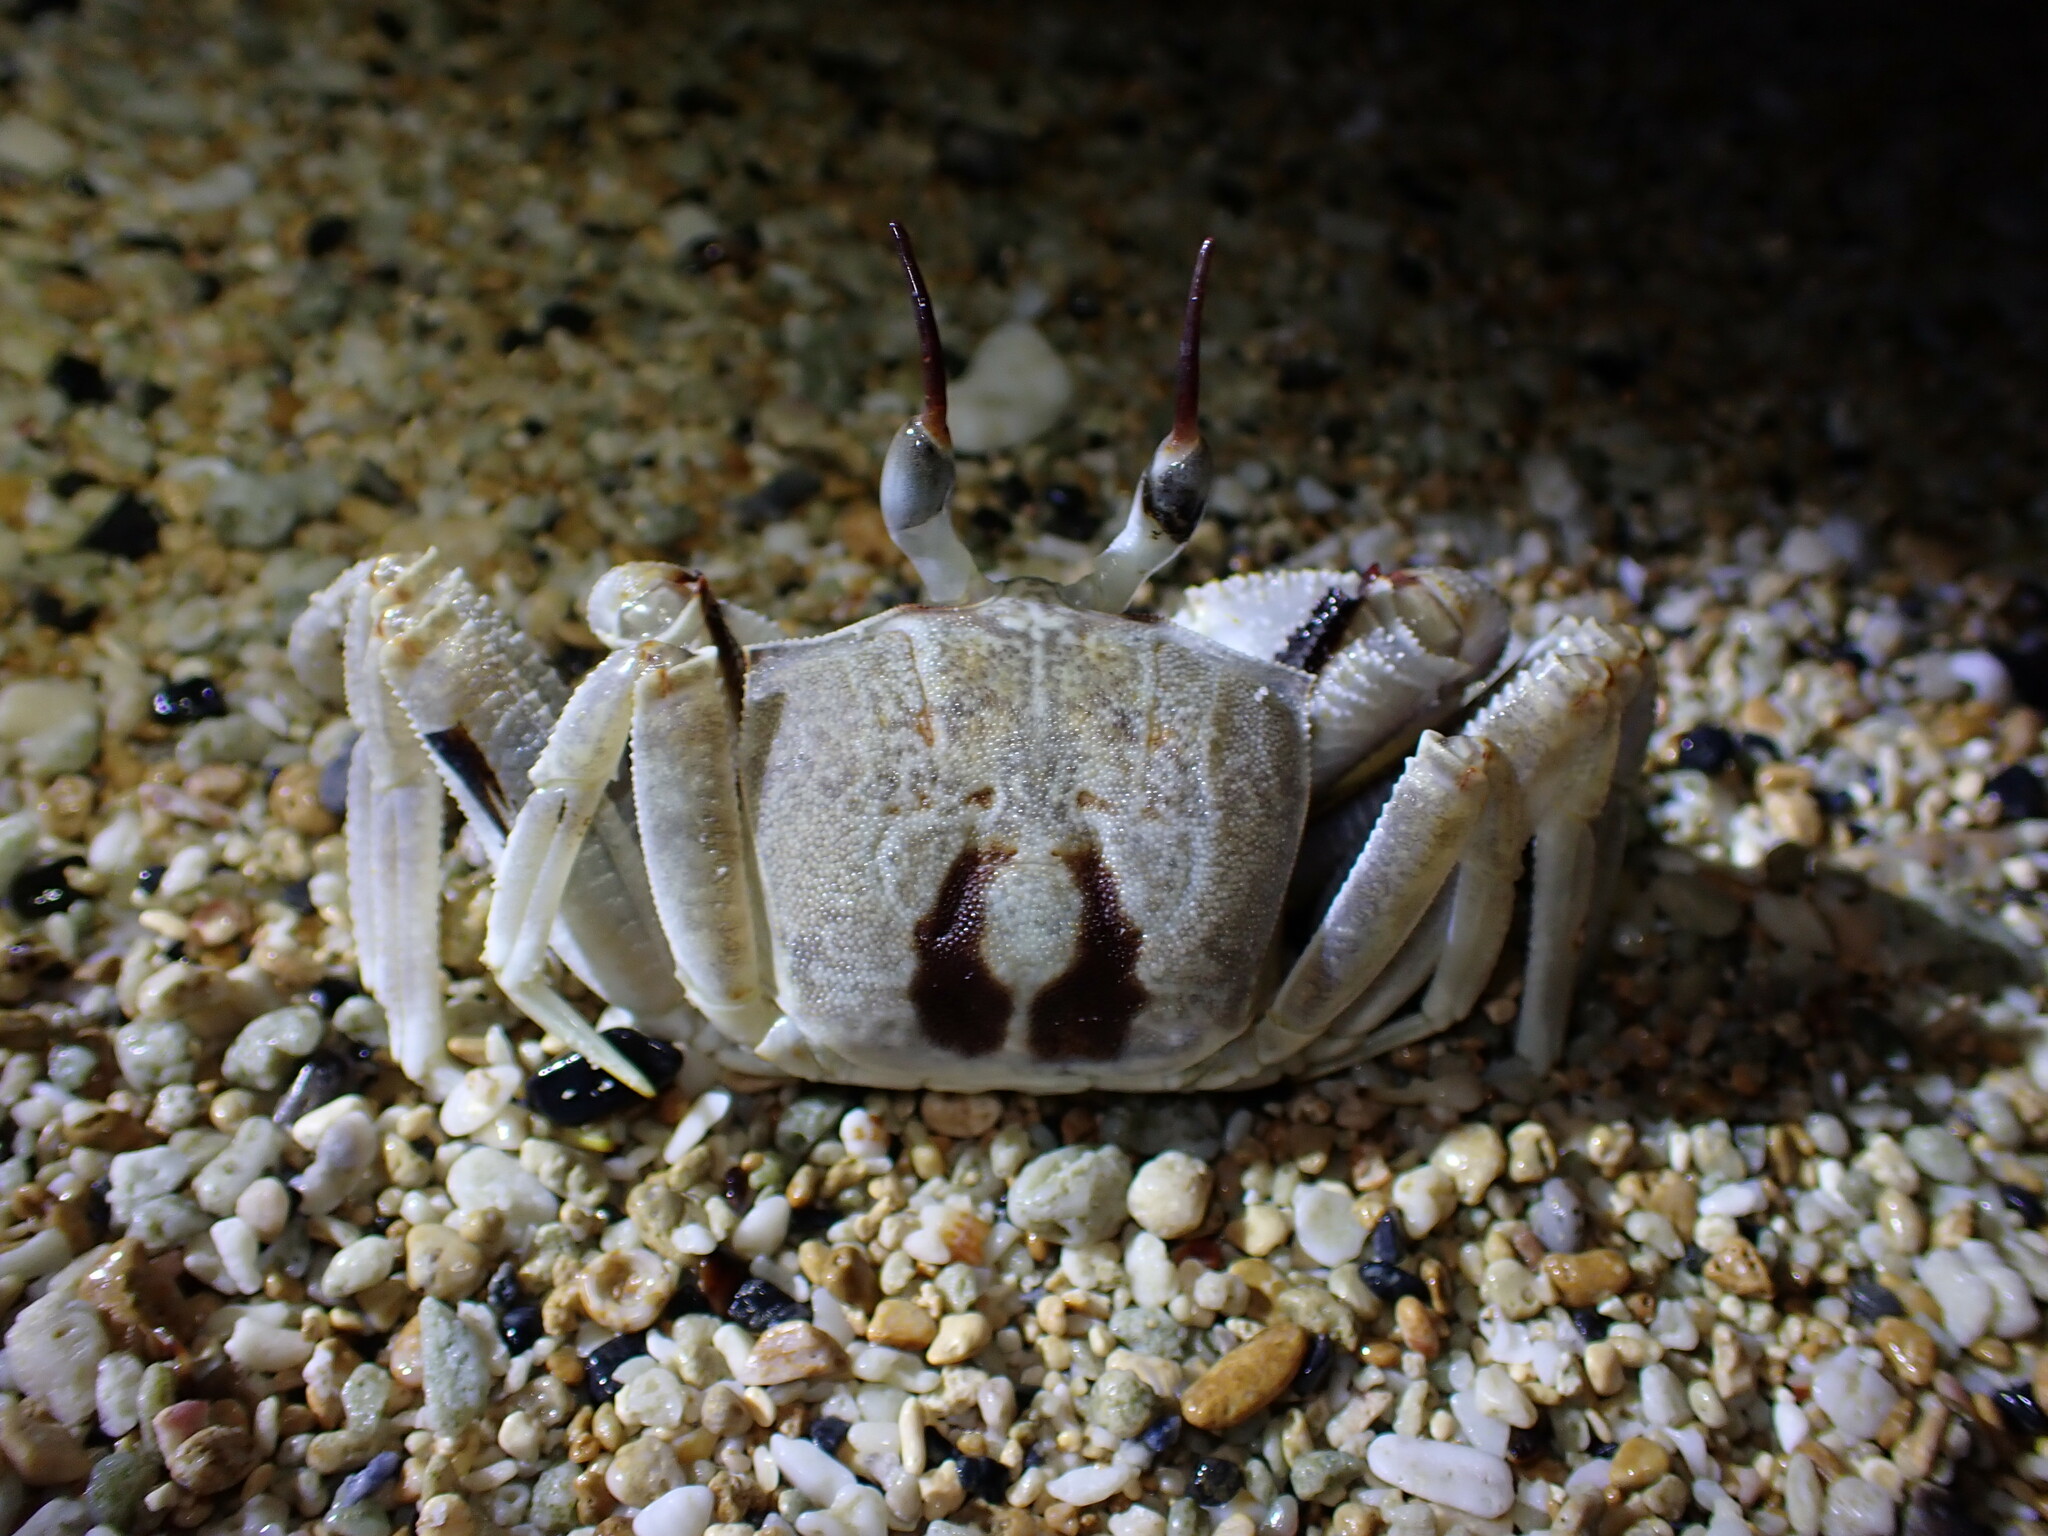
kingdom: Animalia
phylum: Arthropoda
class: Malacostraca
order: Decapoda
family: Ocypodidae
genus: Ocypode
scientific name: Ocypode ceratophthalmus
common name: Indo-pacific ghost crab
